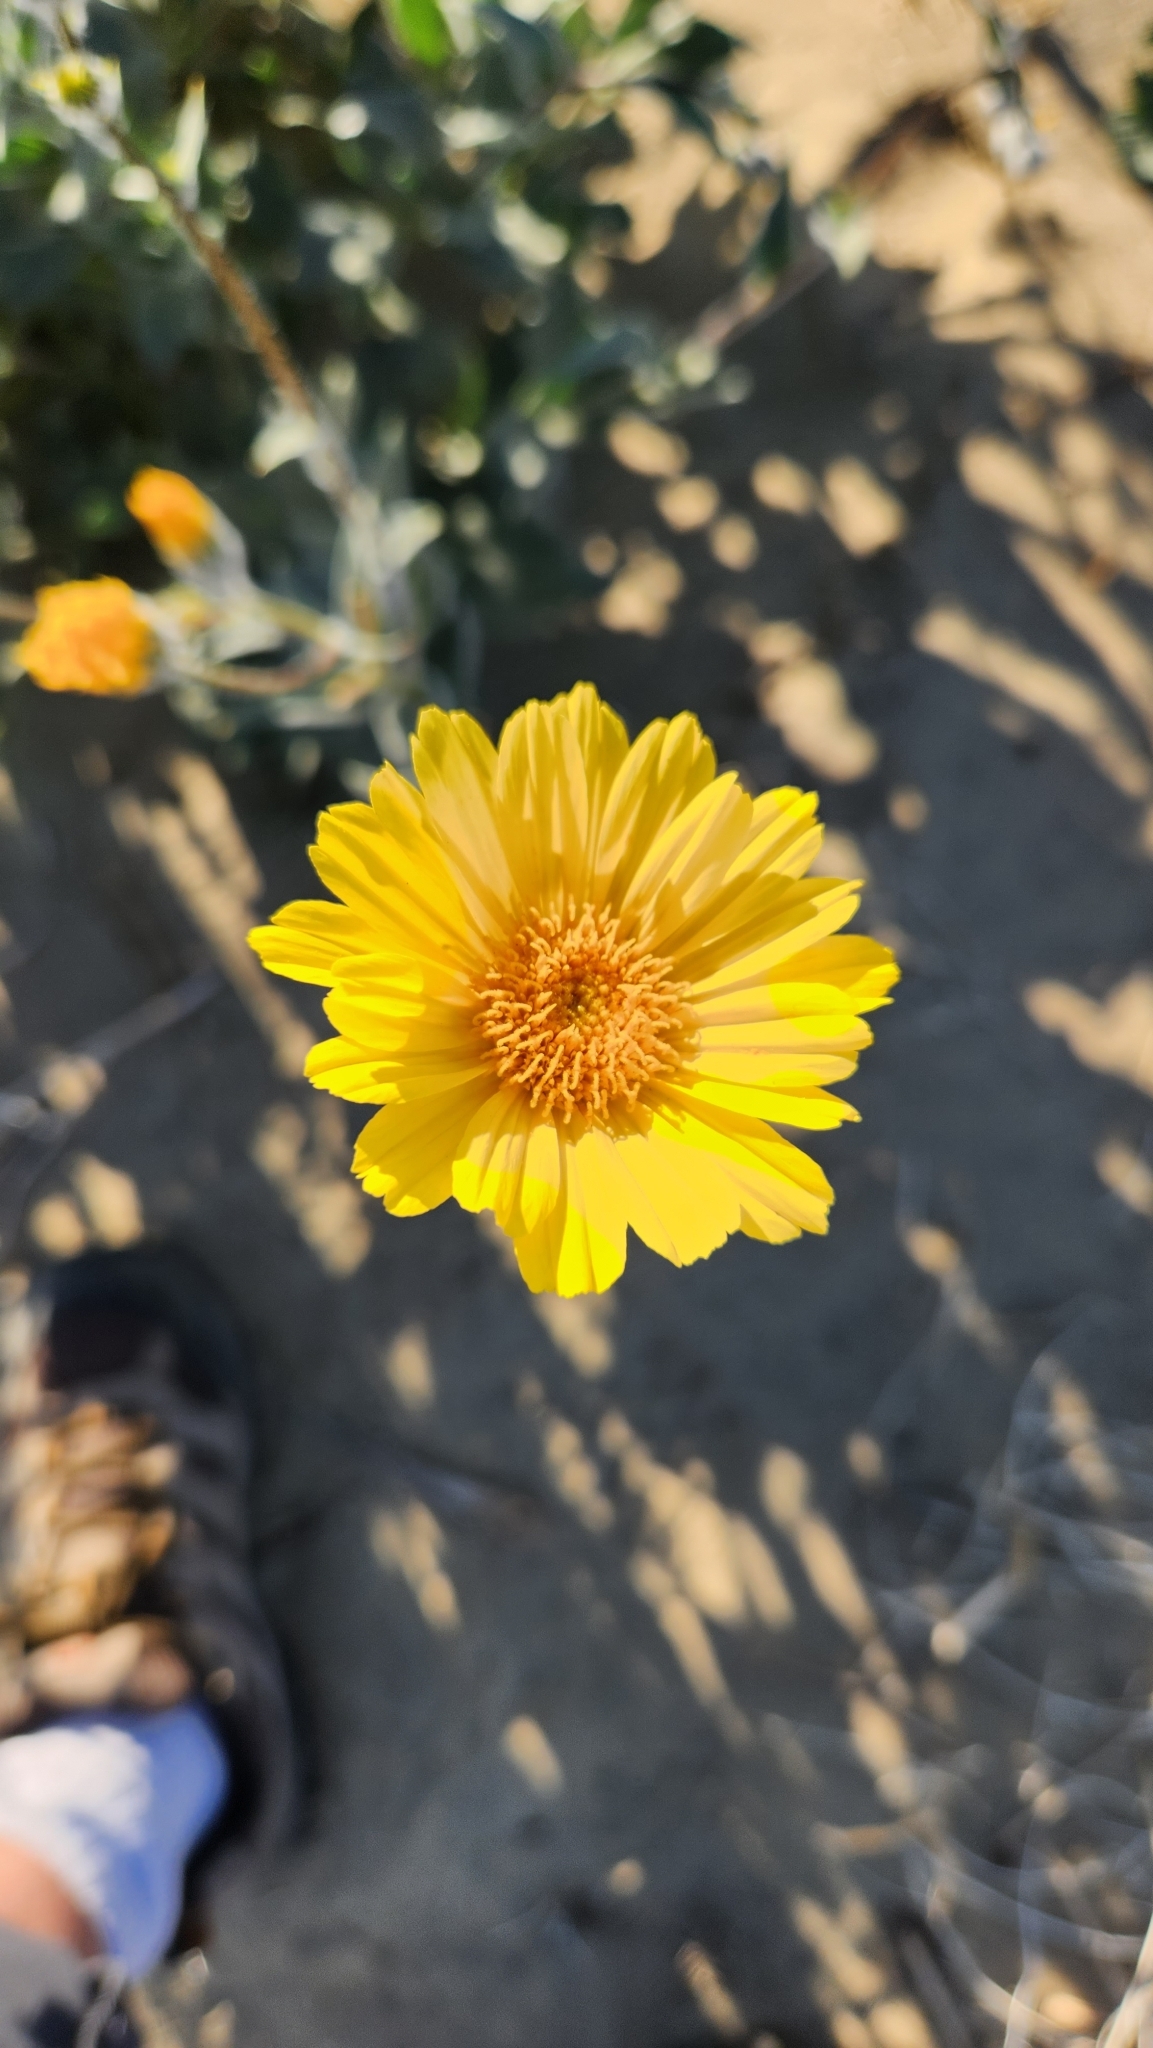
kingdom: Plantae
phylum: Tracheophyta
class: Magnoliopsida
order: Asterales
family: Asteraceae
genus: Geraea
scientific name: Geraea canescens
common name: Desert-gold
